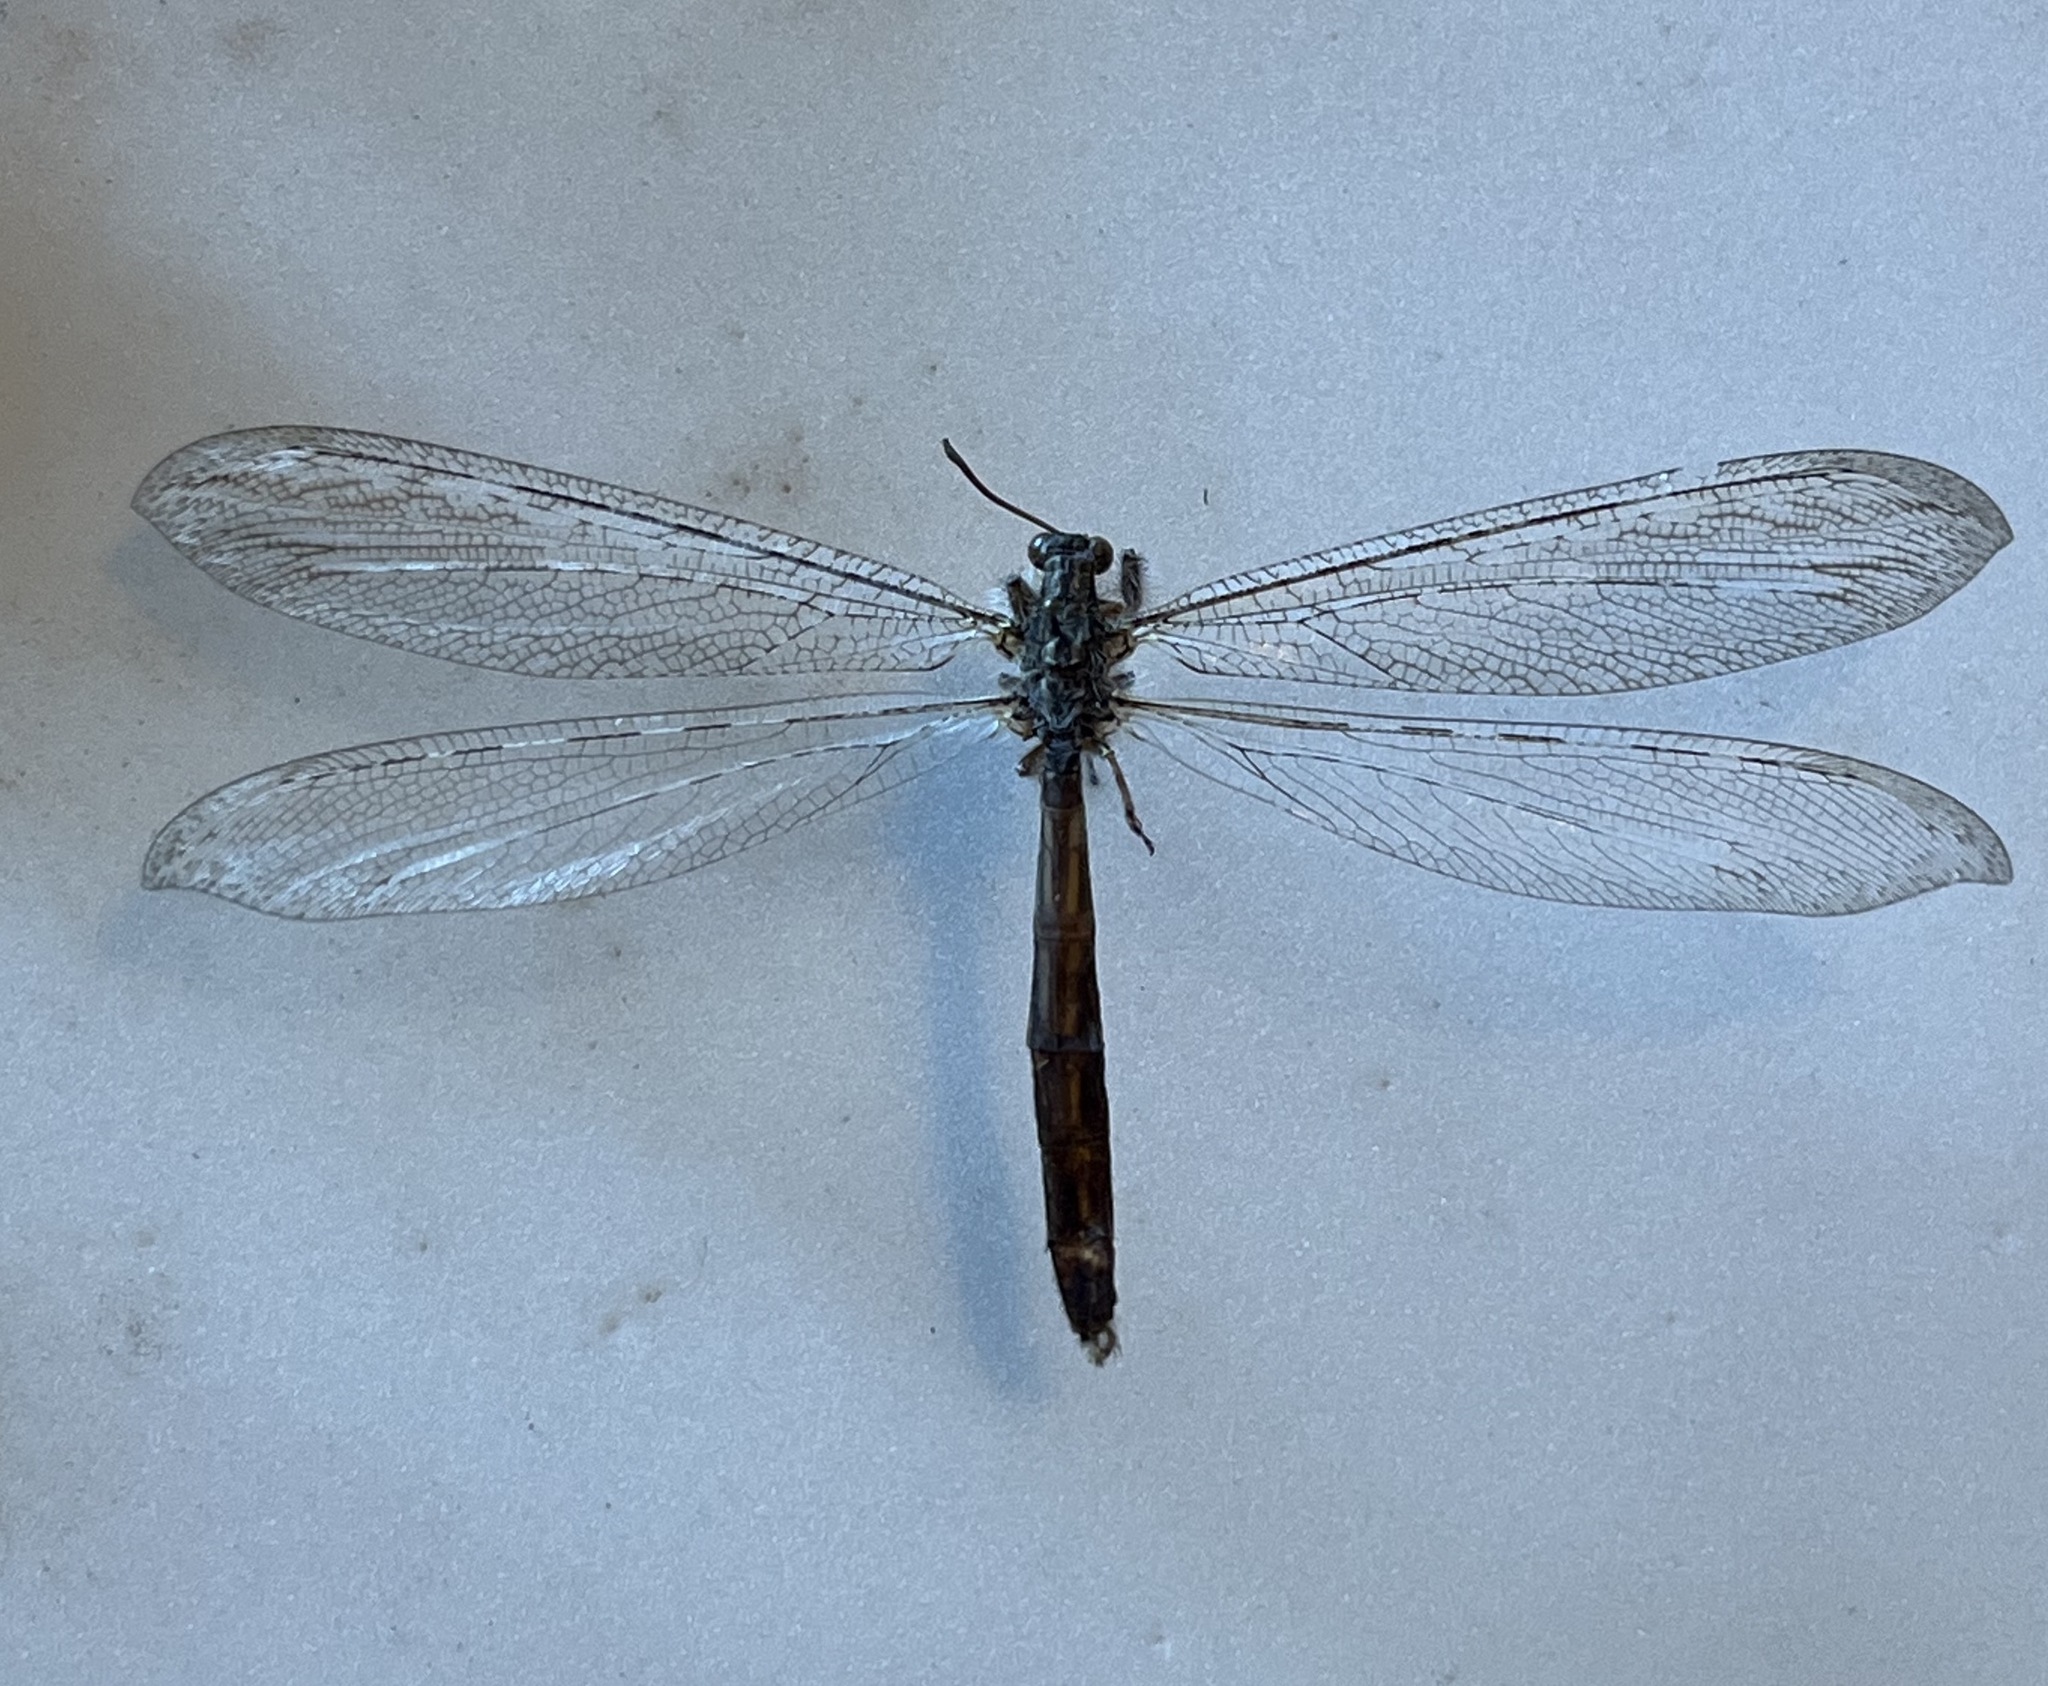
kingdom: Animalia
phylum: Arthropoda
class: Insecta
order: Neuroptera
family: Myrmeleontidae
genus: Vella
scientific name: Vella fallax
